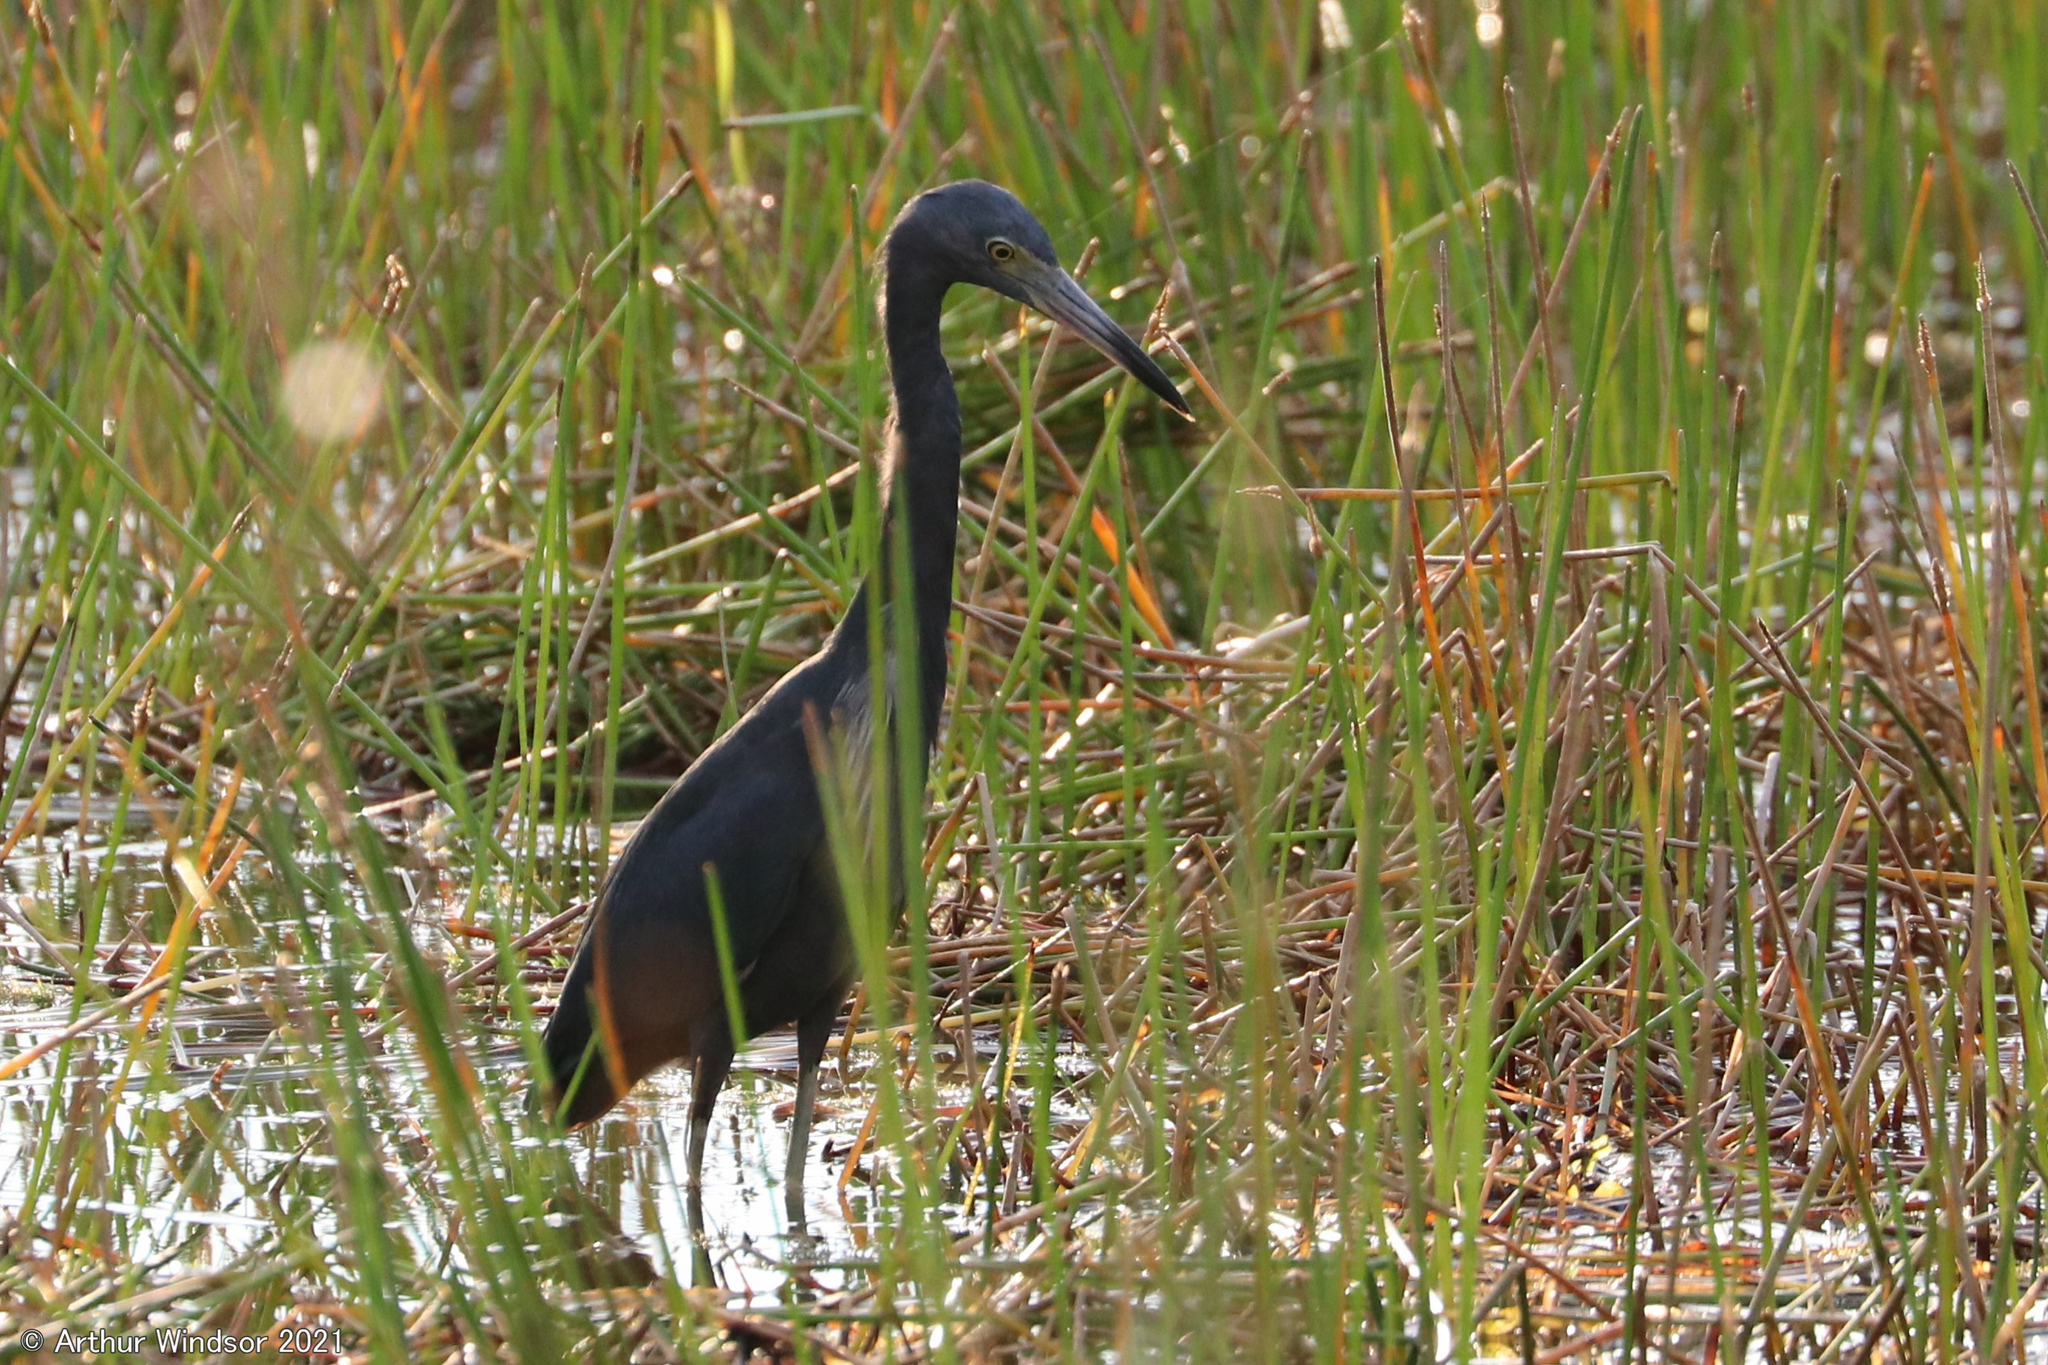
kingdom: Animalia
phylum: Chordata
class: Aves
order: Pelecaniformes
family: Ardeidae
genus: Egretta
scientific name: Egretta caerulea
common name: Little blue heron
